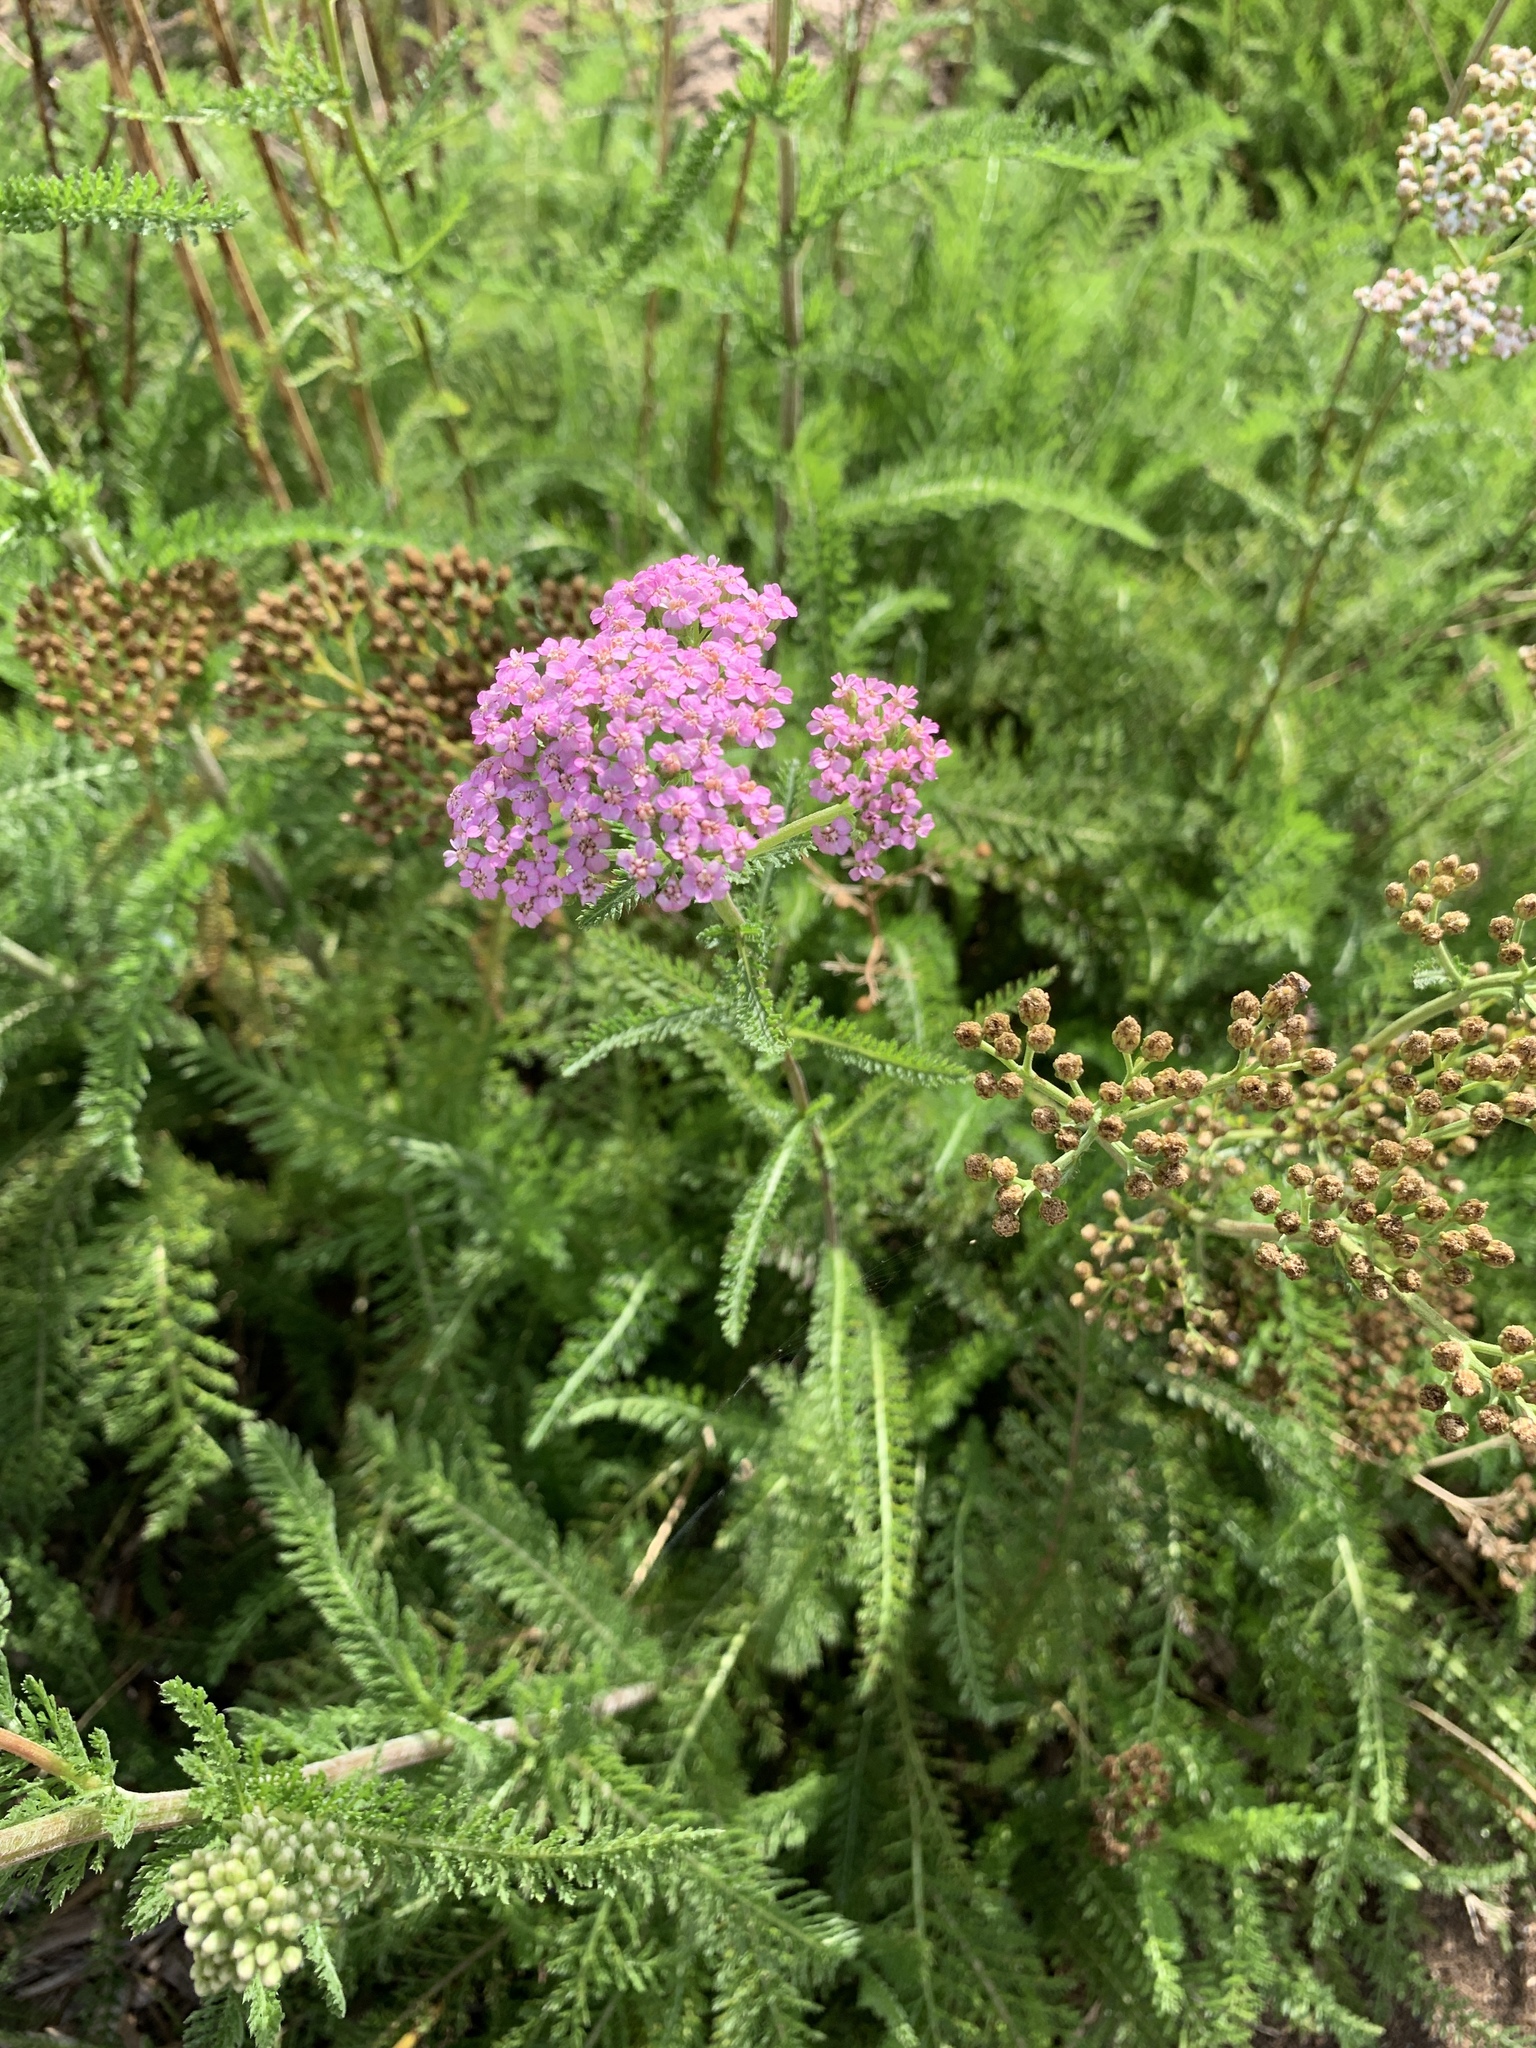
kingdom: Plantae
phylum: Tracheophyta
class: Magnoliopsida
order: Asterales
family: Asteraceae
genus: Achillea
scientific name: Achillea millefolium
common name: Yarrow
